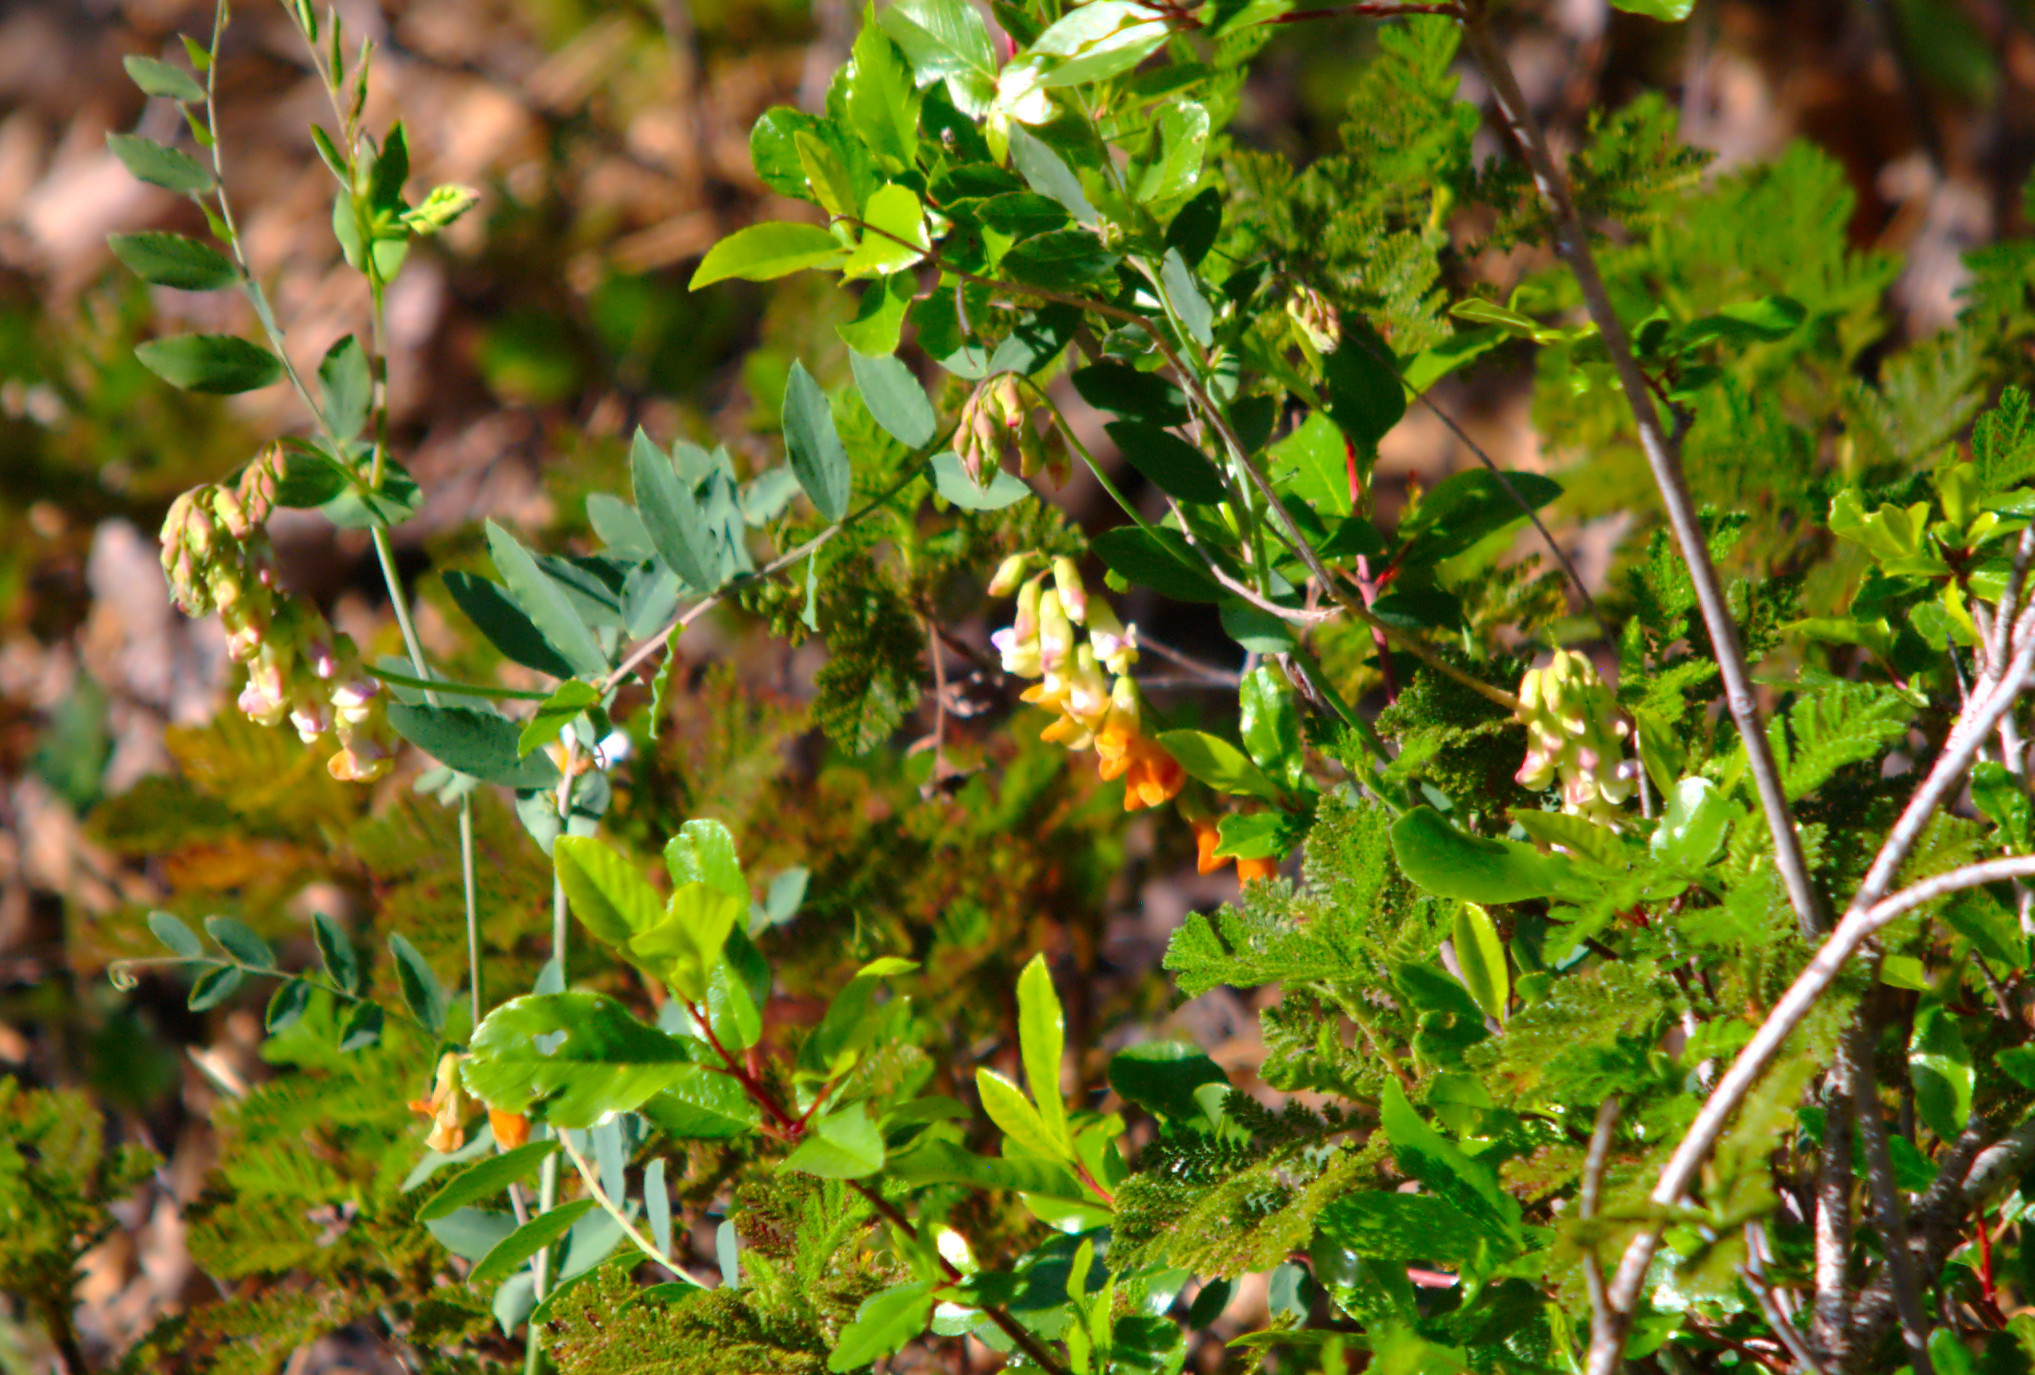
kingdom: Plantae
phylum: Tracheophyta
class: Magnoliopsida
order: Fabales
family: Fabaceae
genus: Lathyrus
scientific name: Lathyrus sulphureus
